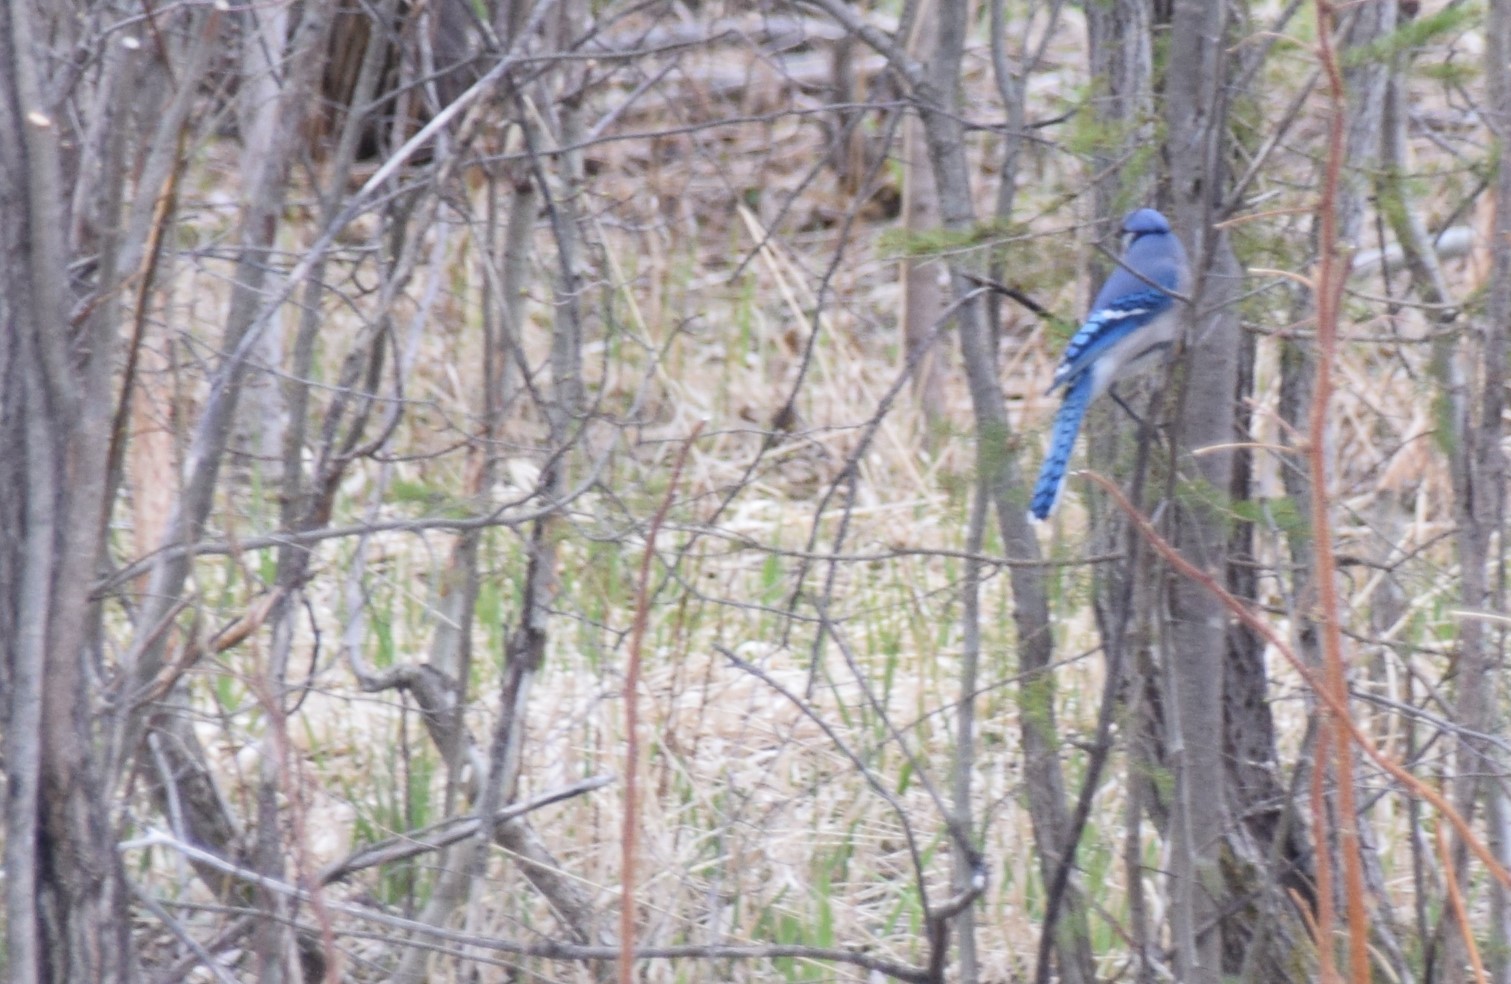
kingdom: Animalia
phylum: Chordata
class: Aves
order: Passeriformes
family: Corvidae
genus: Cyanocitta
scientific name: Cyanocitta cristata
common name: Blue jay
